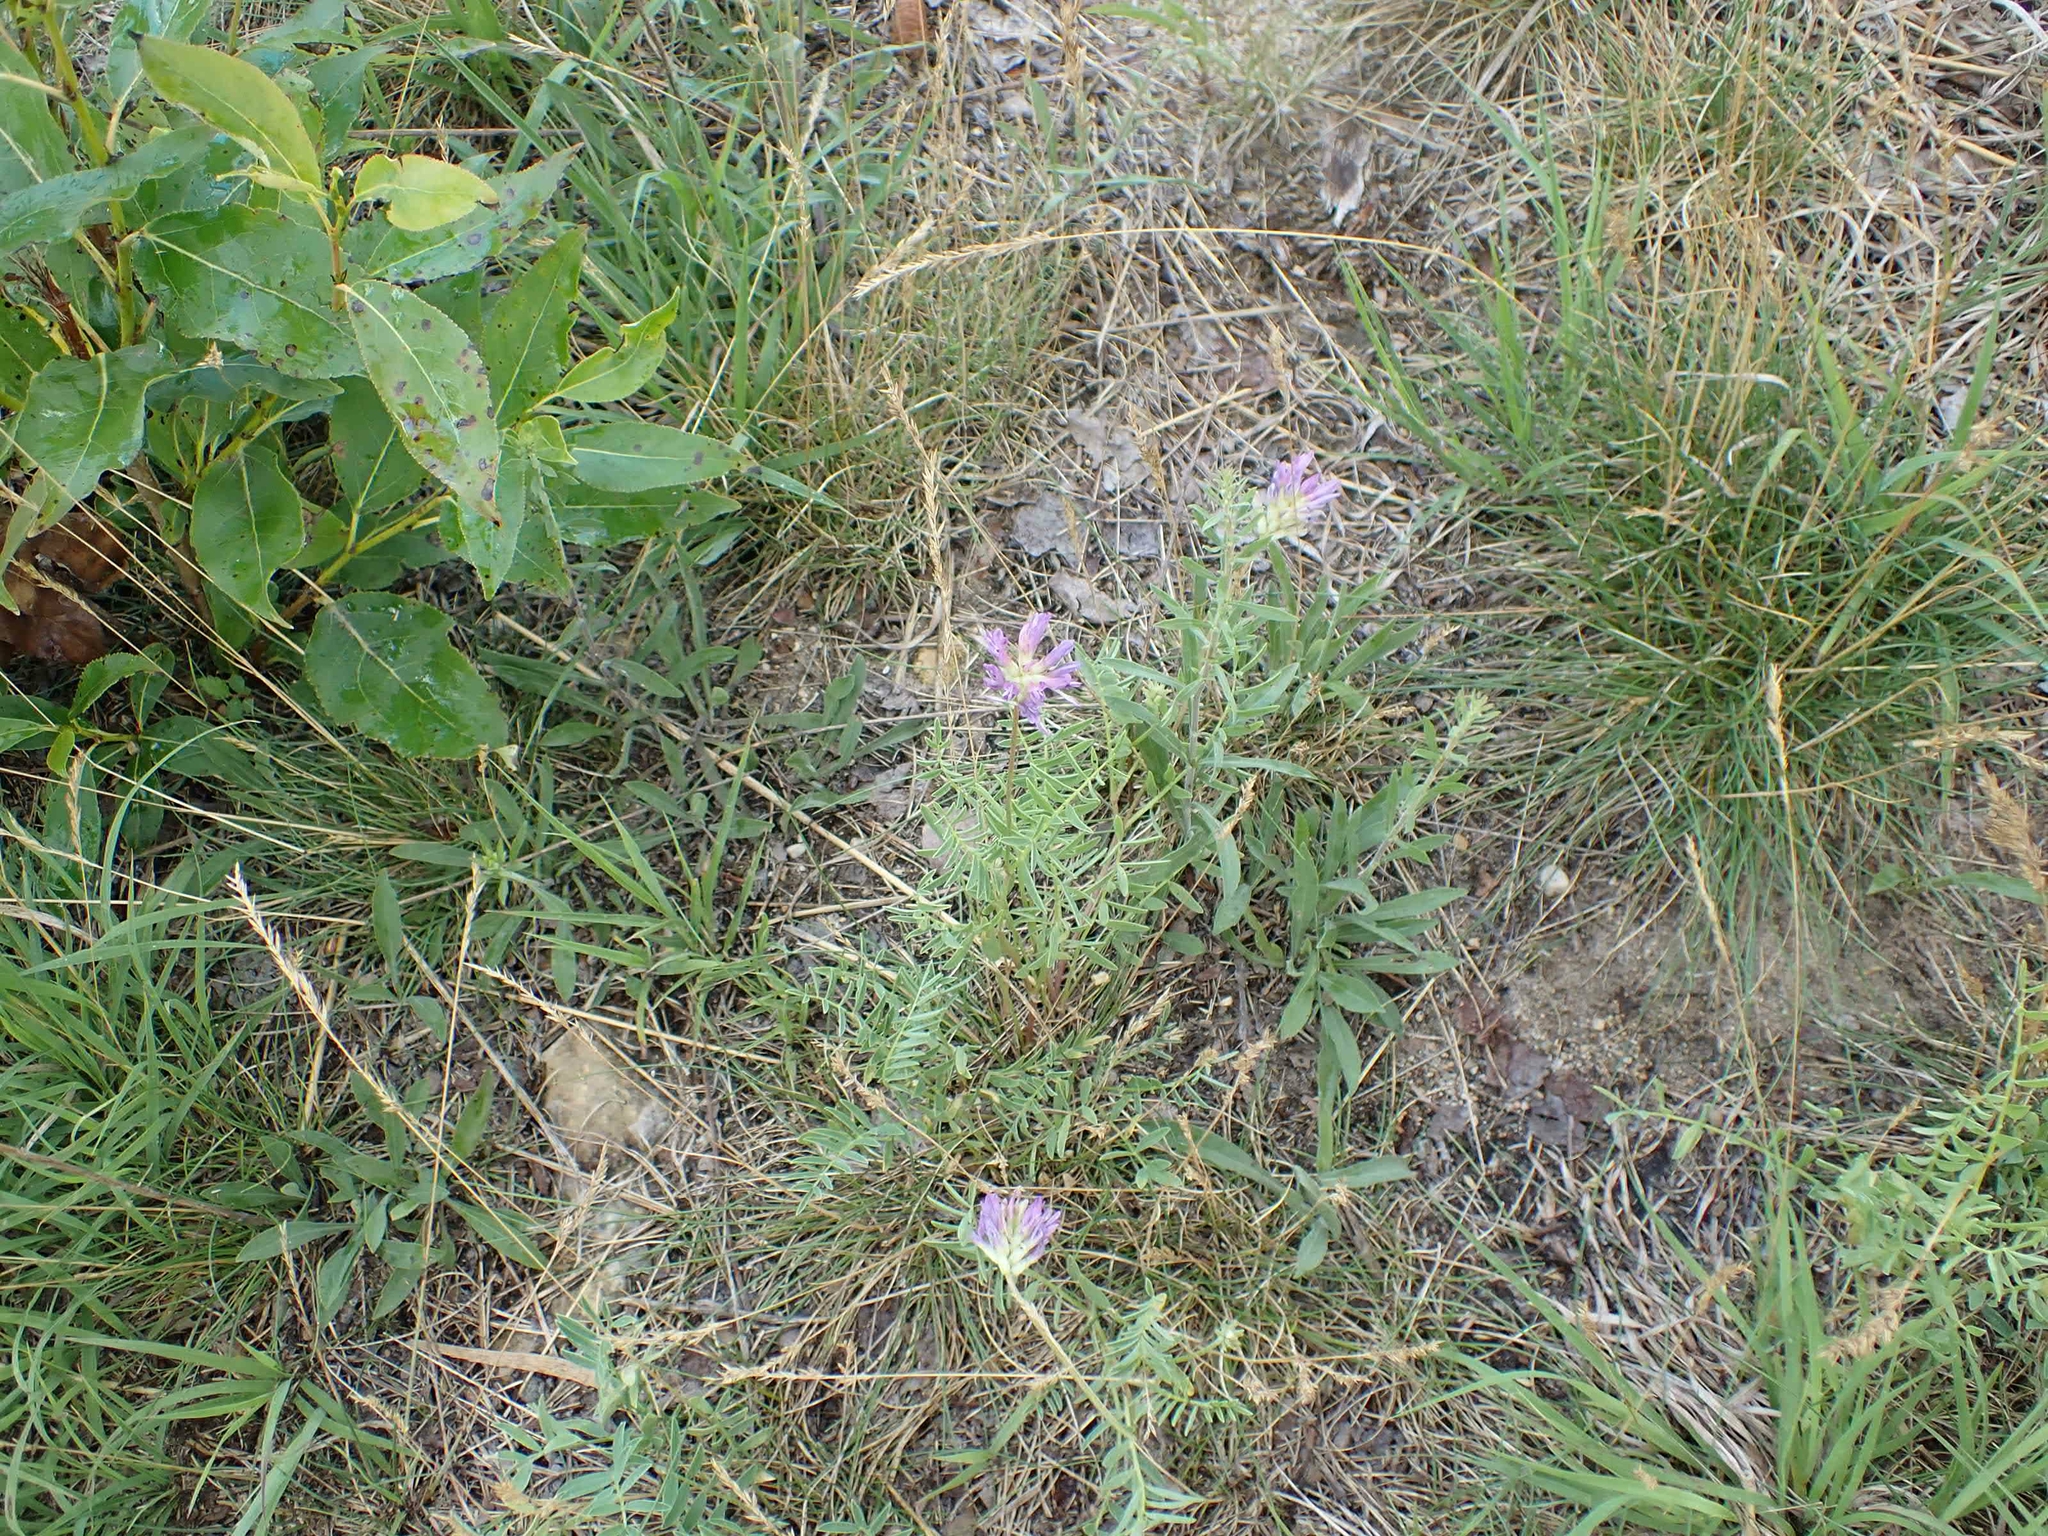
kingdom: Plantae
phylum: Tracheophyta
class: Magnoliopsida
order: Fabales
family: Fabaceae
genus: Astragalus
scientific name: Astragalus laxmannii
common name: Laxmann's milk-vetch
